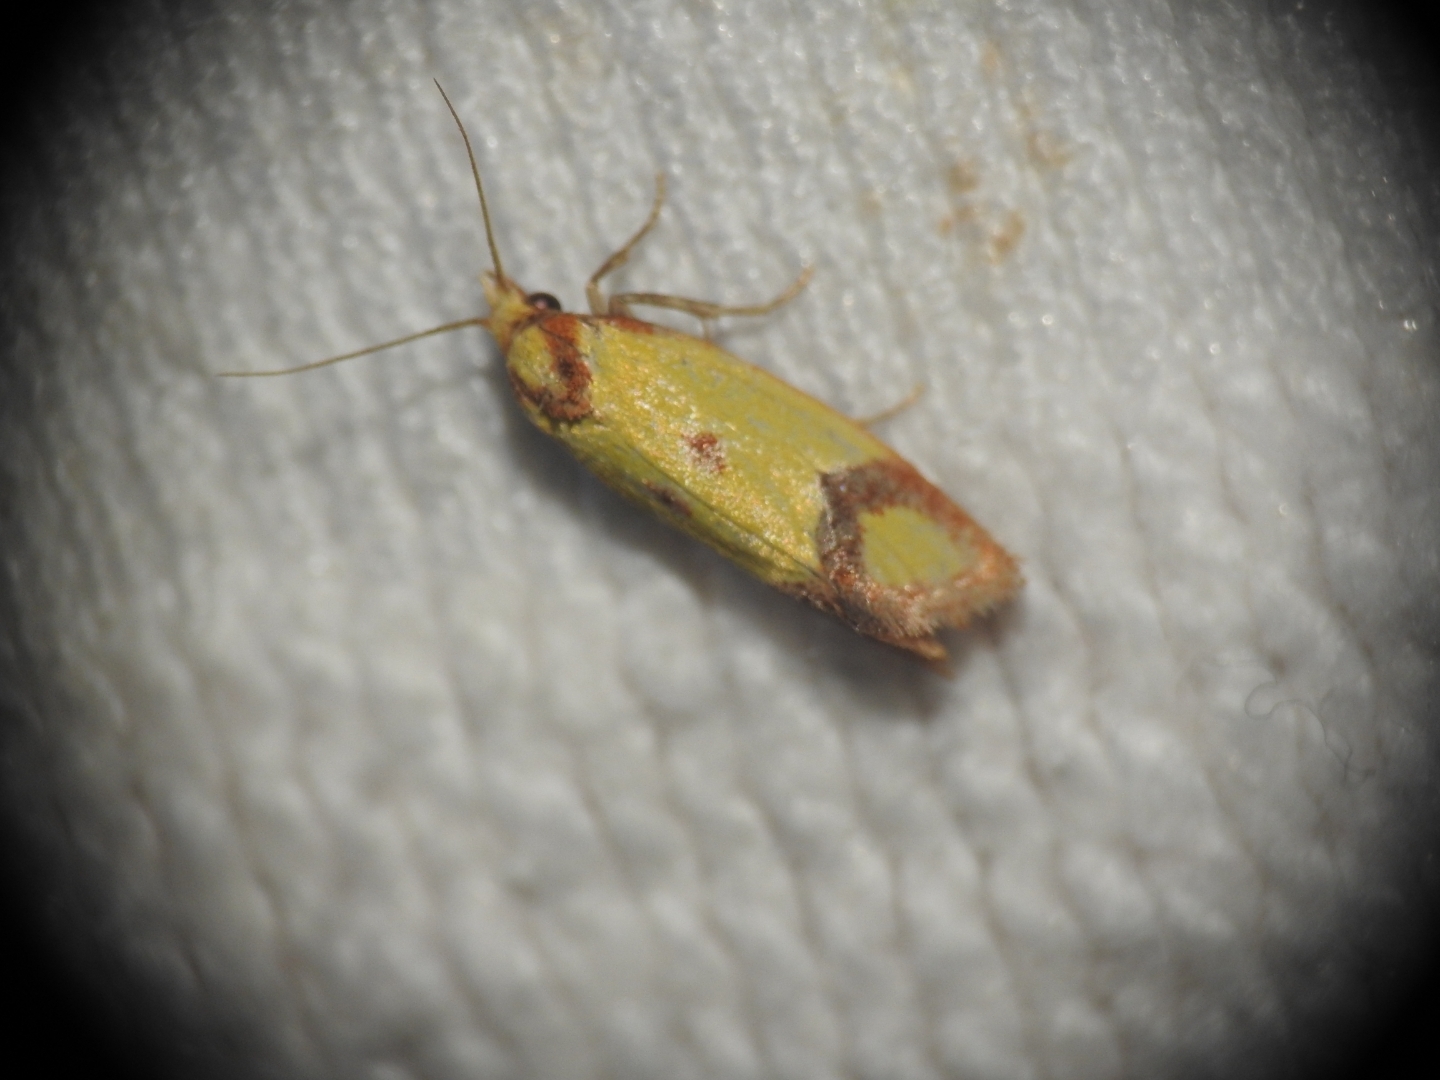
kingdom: Animalia
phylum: Arthropoda
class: Insecta
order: Lepidoptera
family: Tortricidae
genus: Agapeta
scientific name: Agapeta zoegana
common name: Sulfur knapweed root moth
